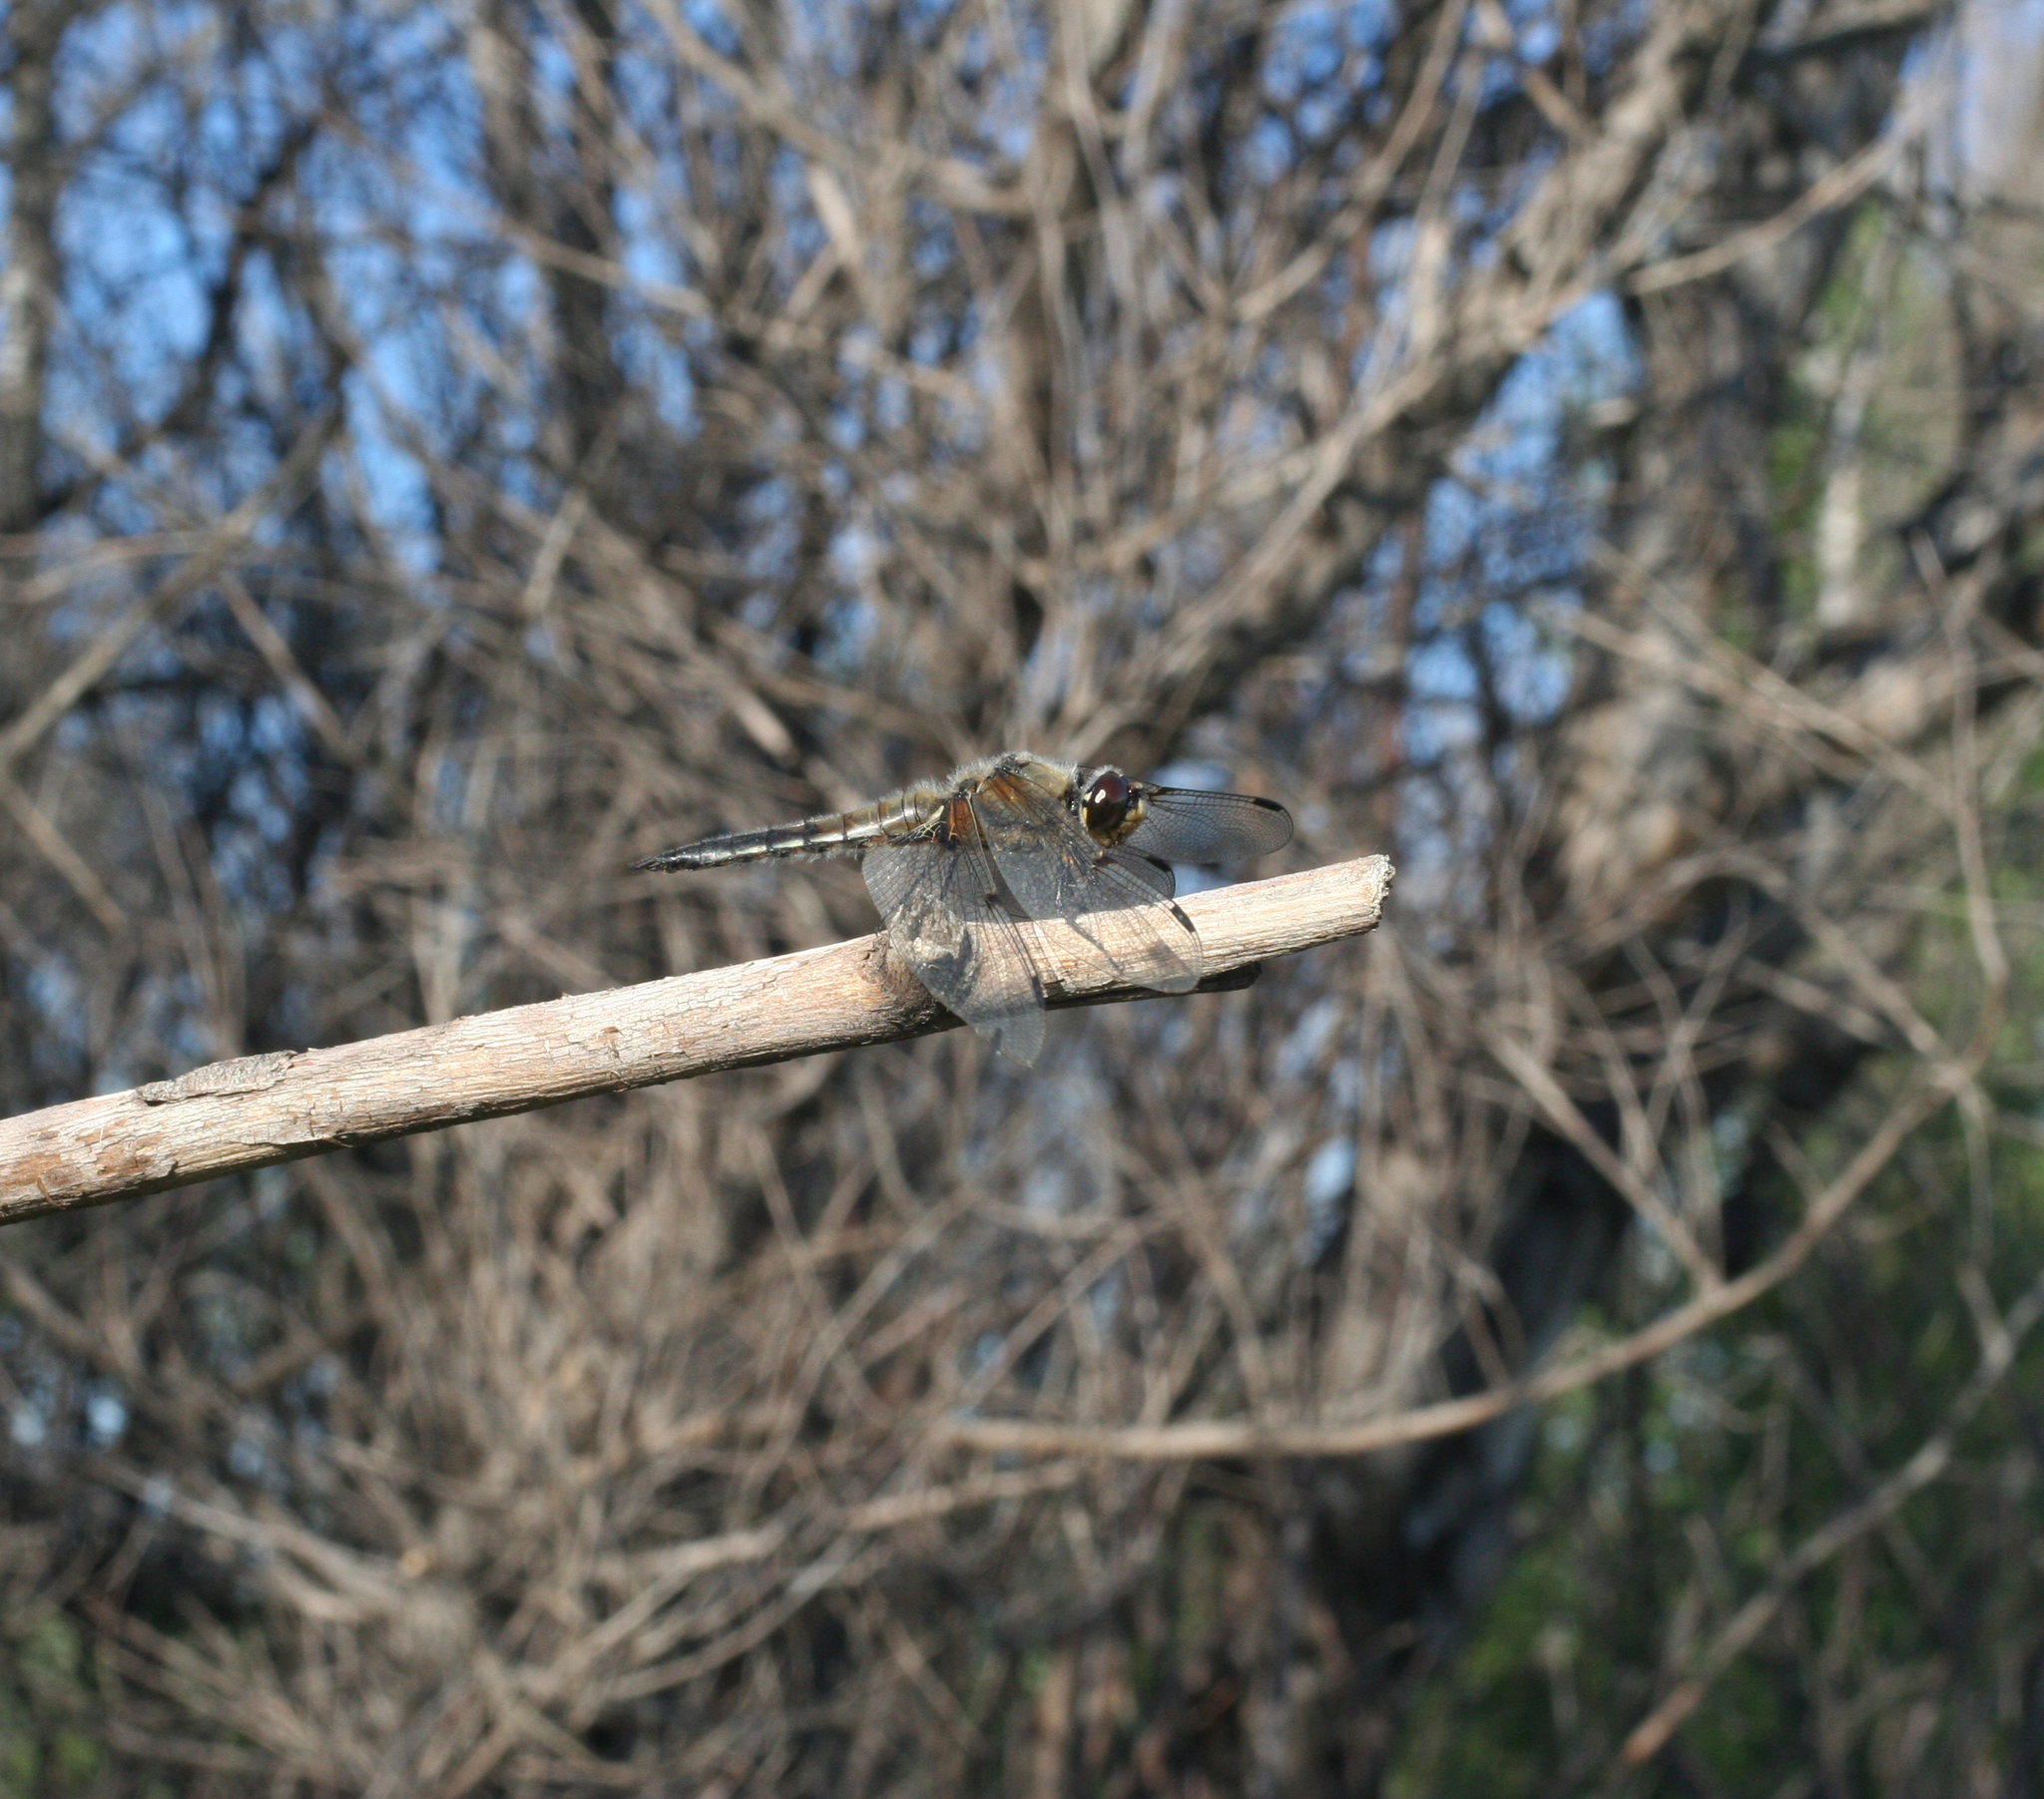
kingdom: Animalia
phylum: Arthropoda
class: Insecta
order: Odonata
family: Libellulidae
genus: Libellula
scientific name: Libellula quadrimaculata
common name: Four-spotted chaser
